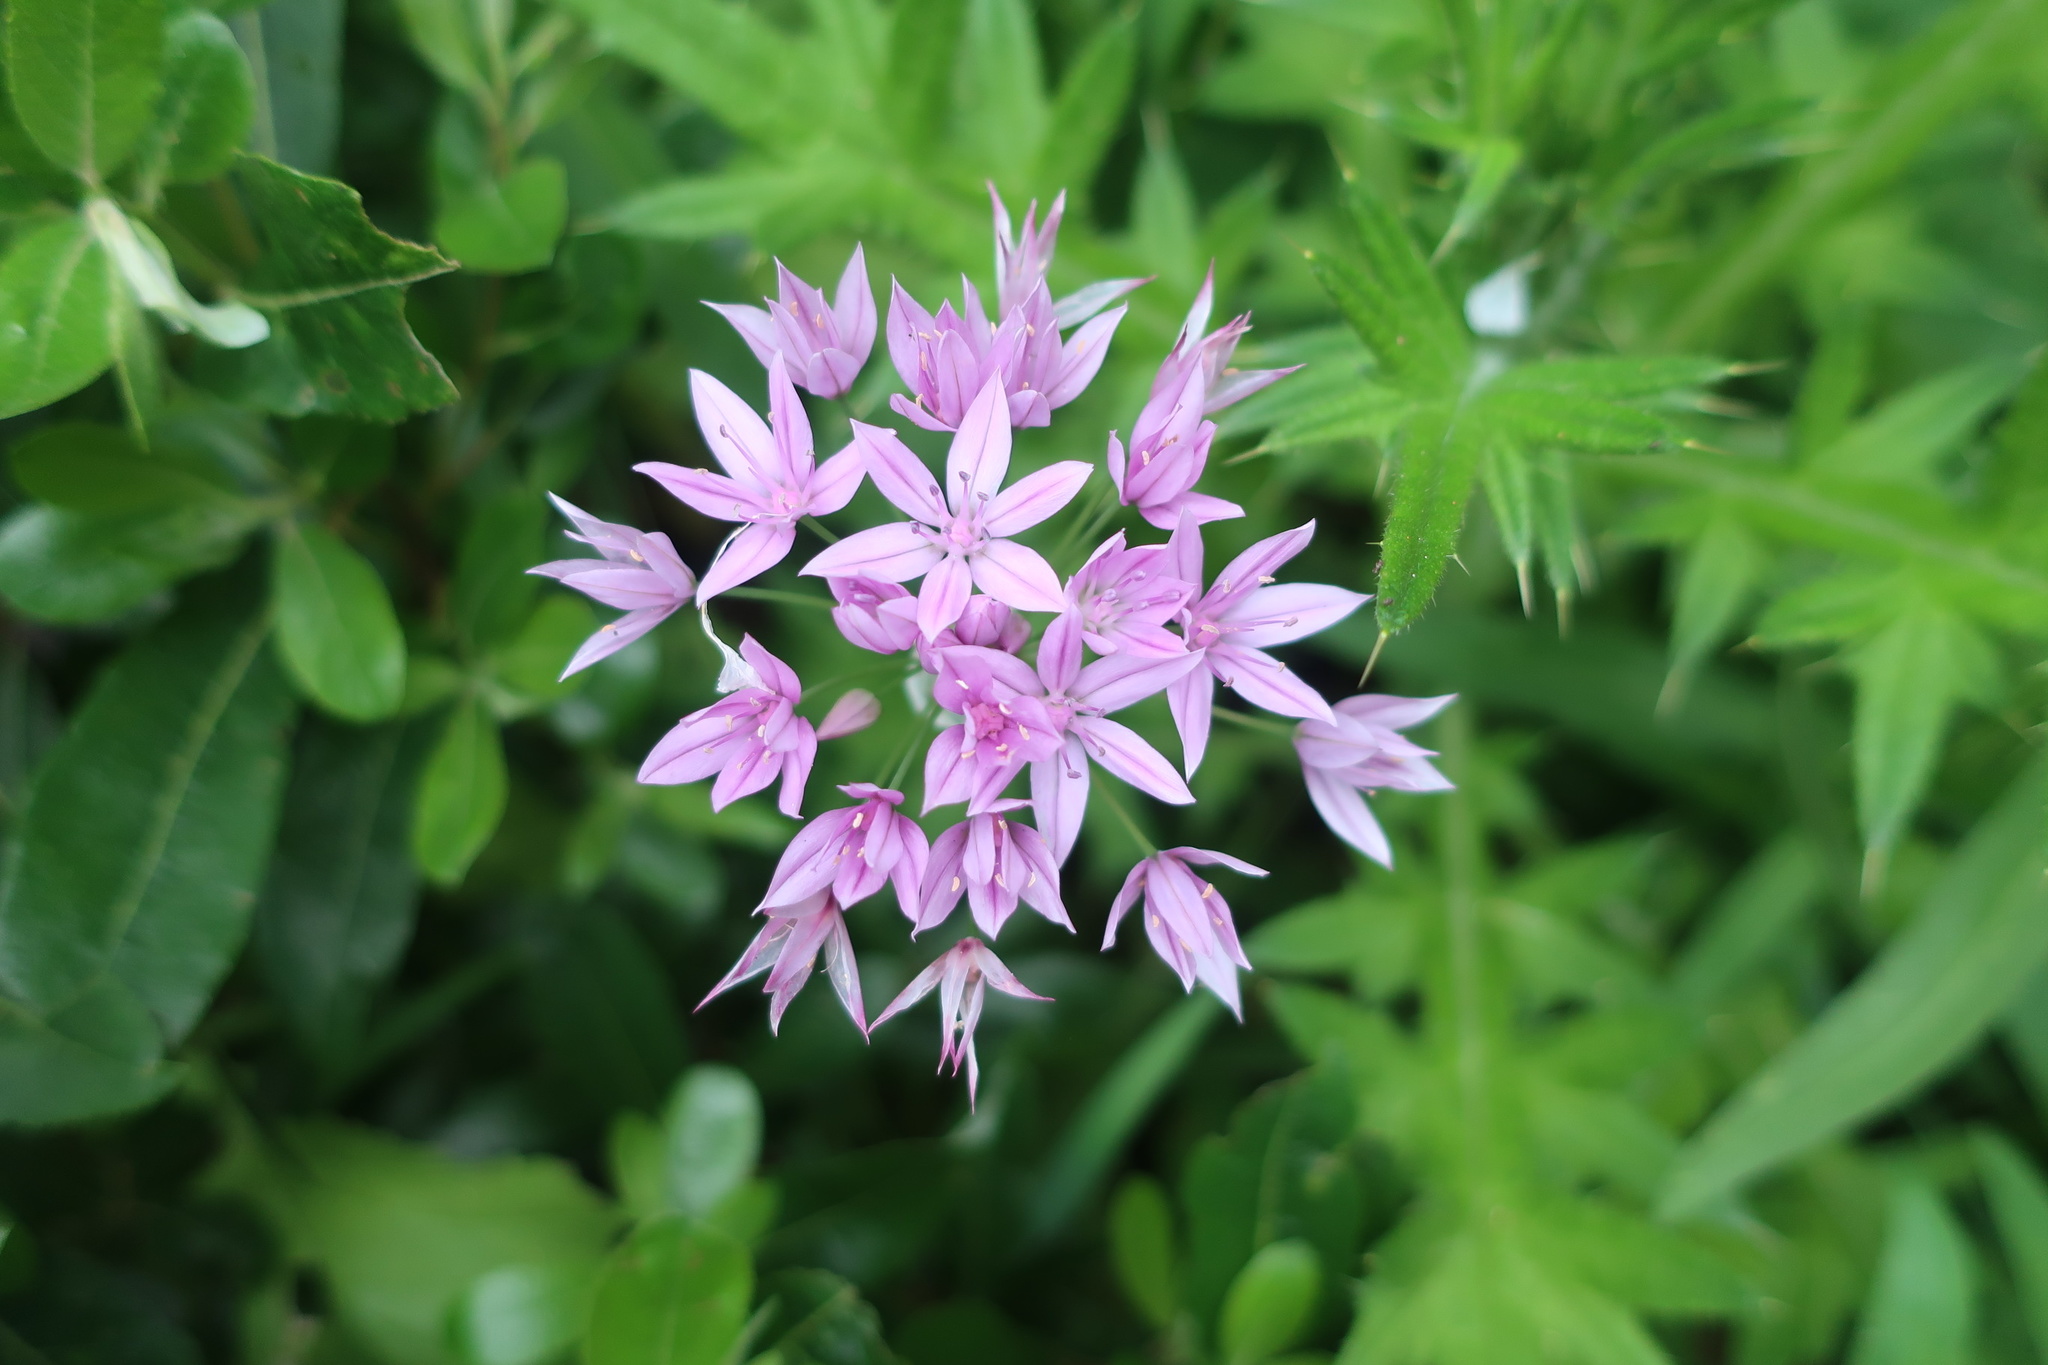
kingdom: Plantae
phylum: Tracheophyta
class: Liliopsida
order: Asparagales
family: Amaryllidaceae
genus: Allium
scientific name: Allium unifolium
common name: American garlic
